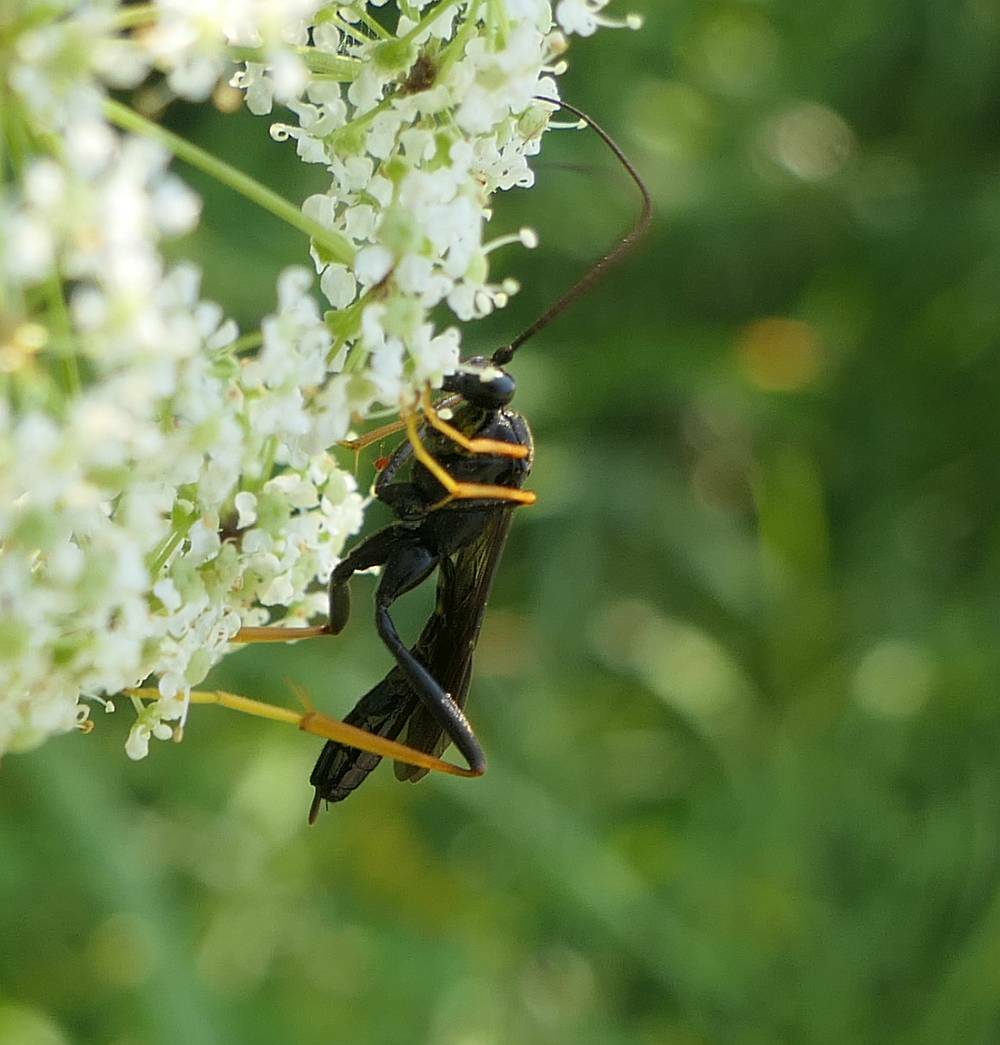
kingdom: Animalia
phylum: Arthropoda
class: Insecta
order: Hymenoptera
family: Ichneumonidae
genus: Exetastes
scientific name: Exetastes suaveolens
